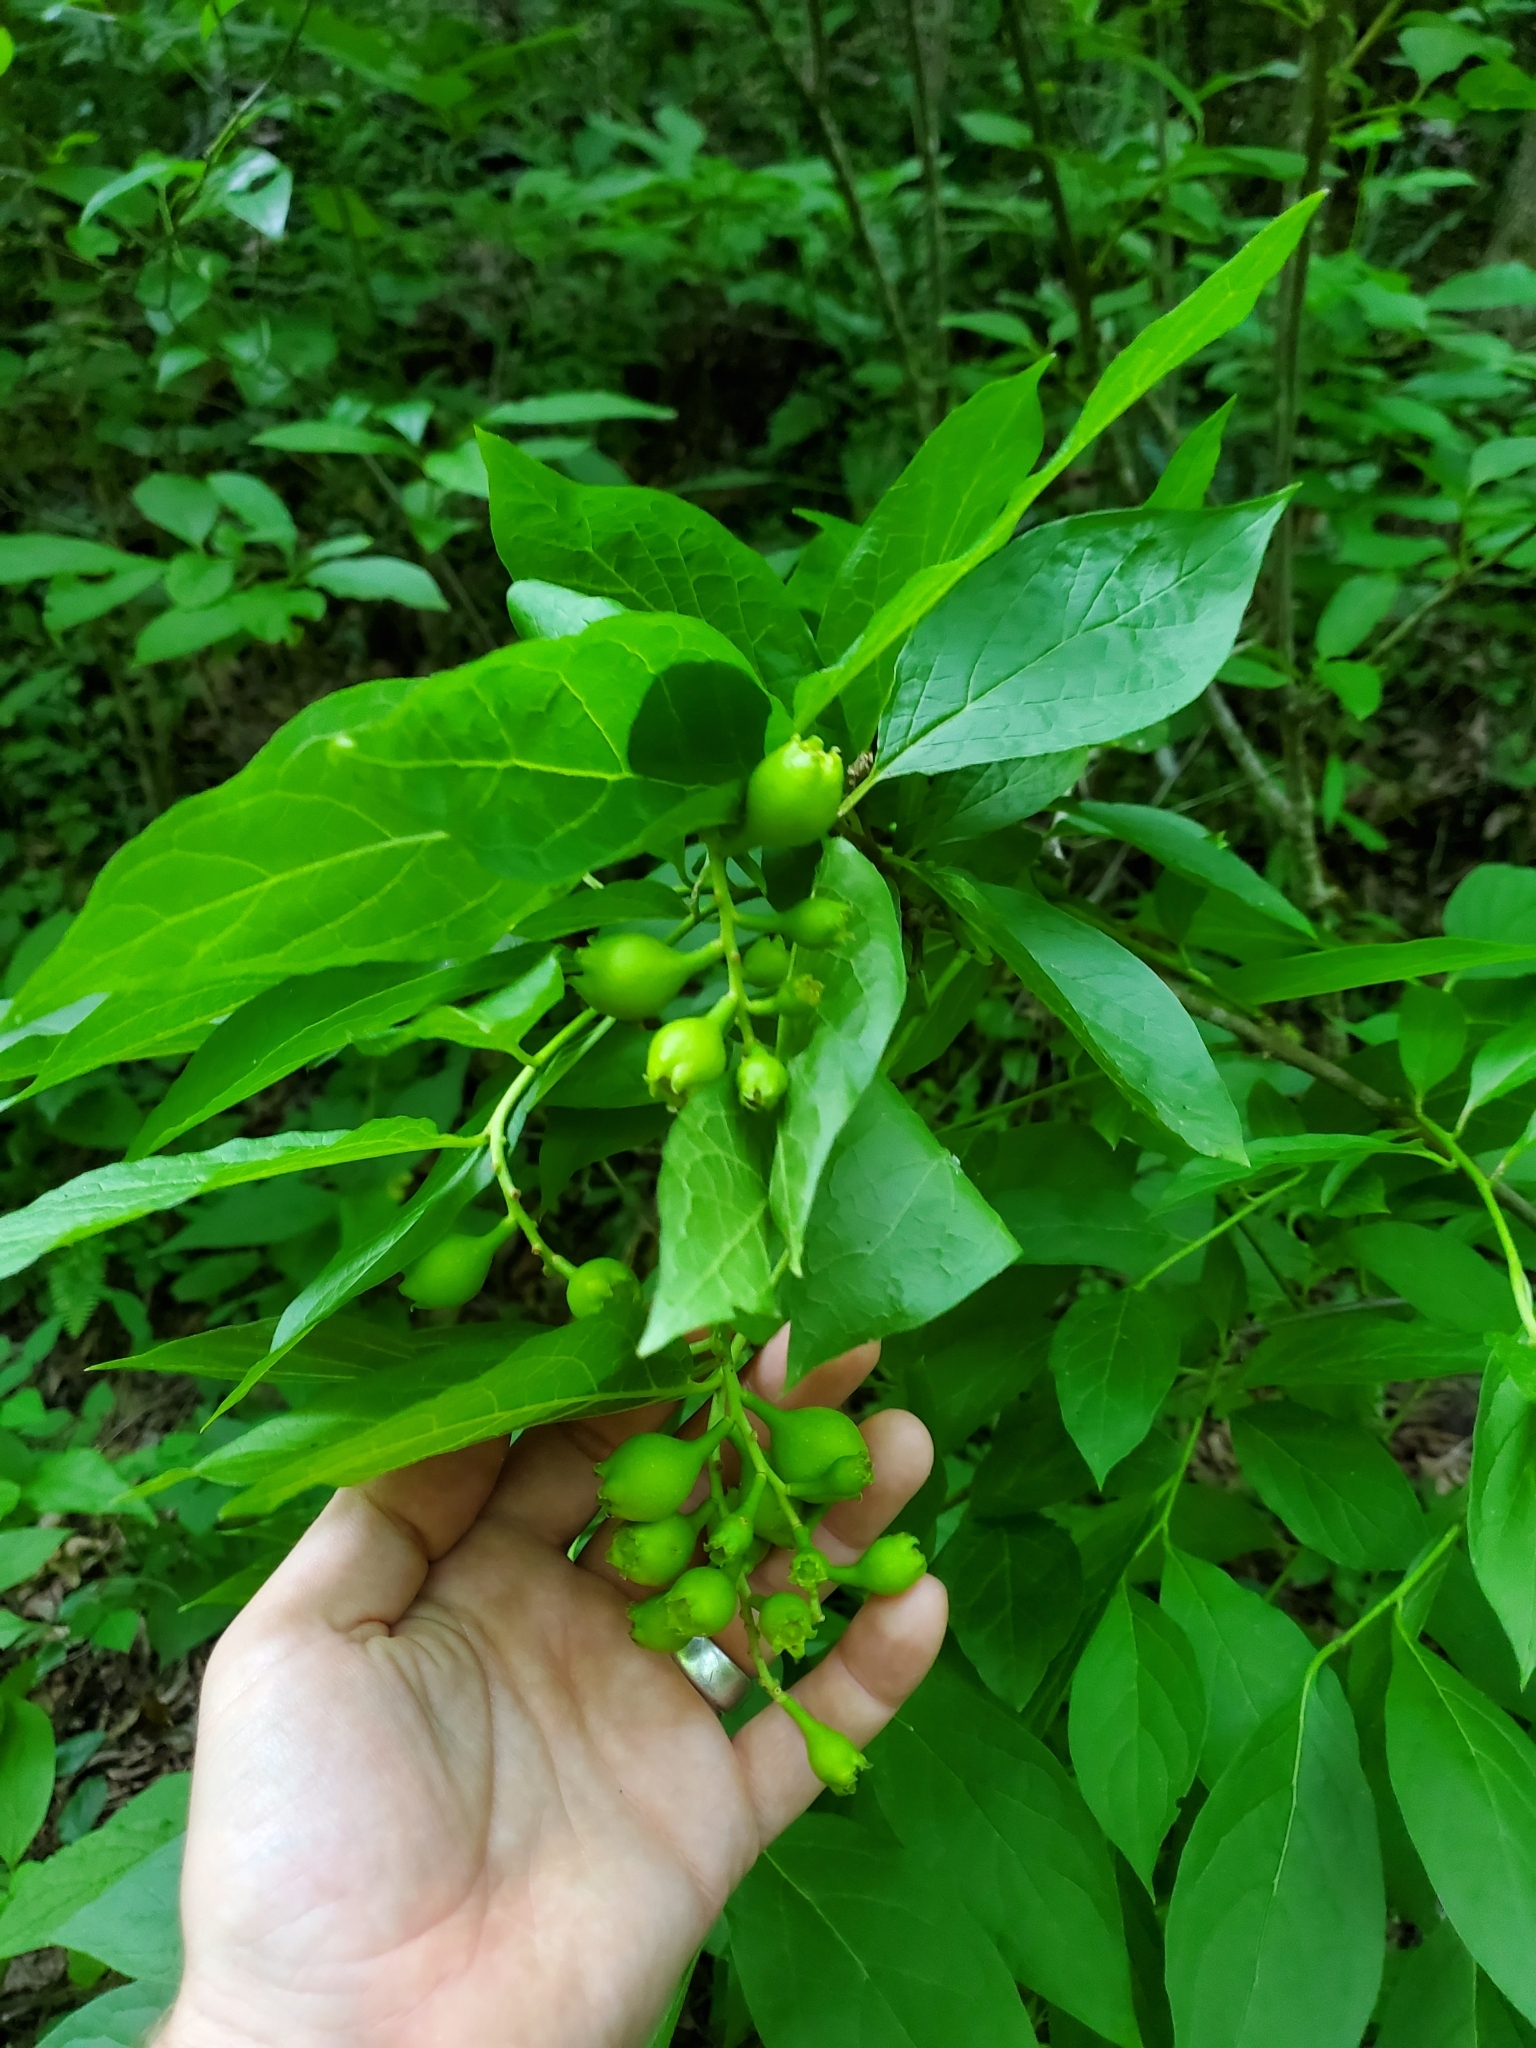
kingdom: Plantae
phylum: Tracheophyta
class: Magnoliopsida
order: Santalales
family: Cervantesiaceae
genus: Pyrularia
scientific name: Pyrularia pubera
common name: Oilnut
